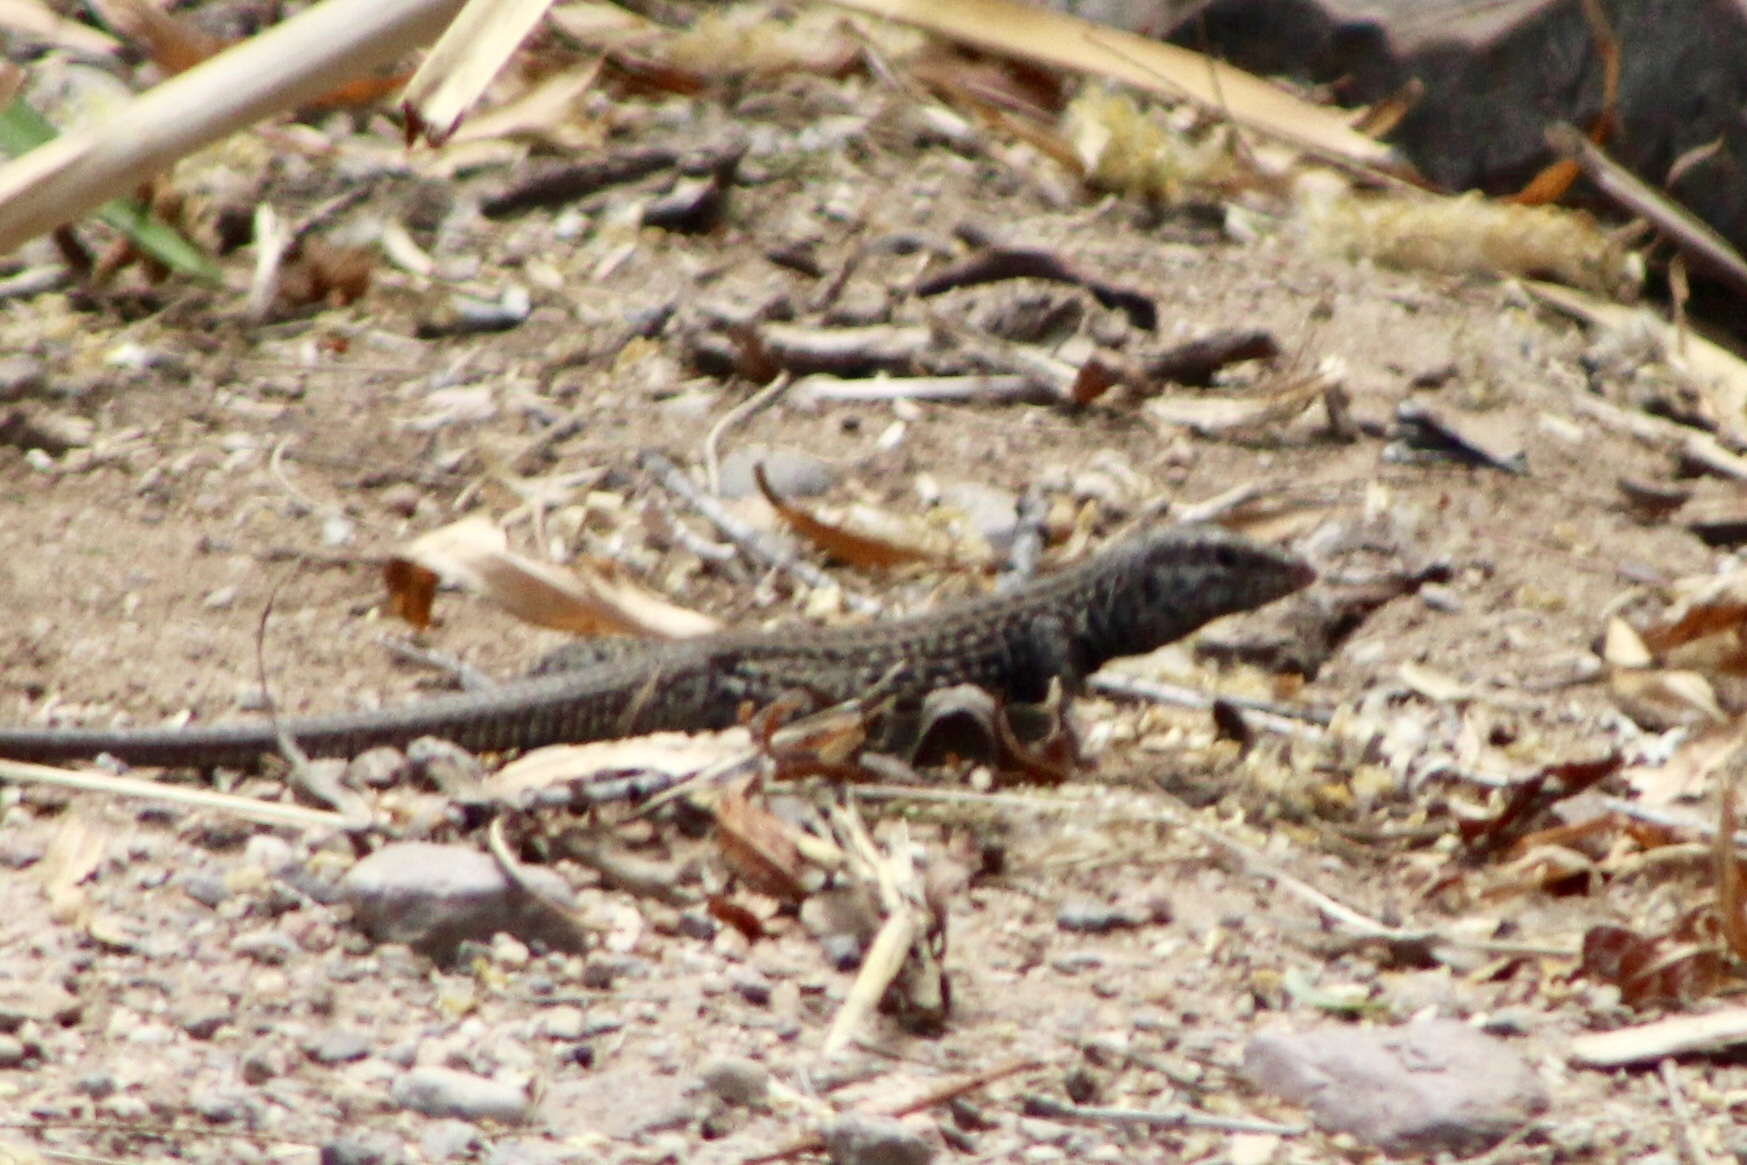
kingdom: Animalia
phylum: Chordata
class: Squamata
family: Teiidae
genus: Aspidoscelis
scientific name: Aspidoscelis tigris
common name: Tiger whiptail
